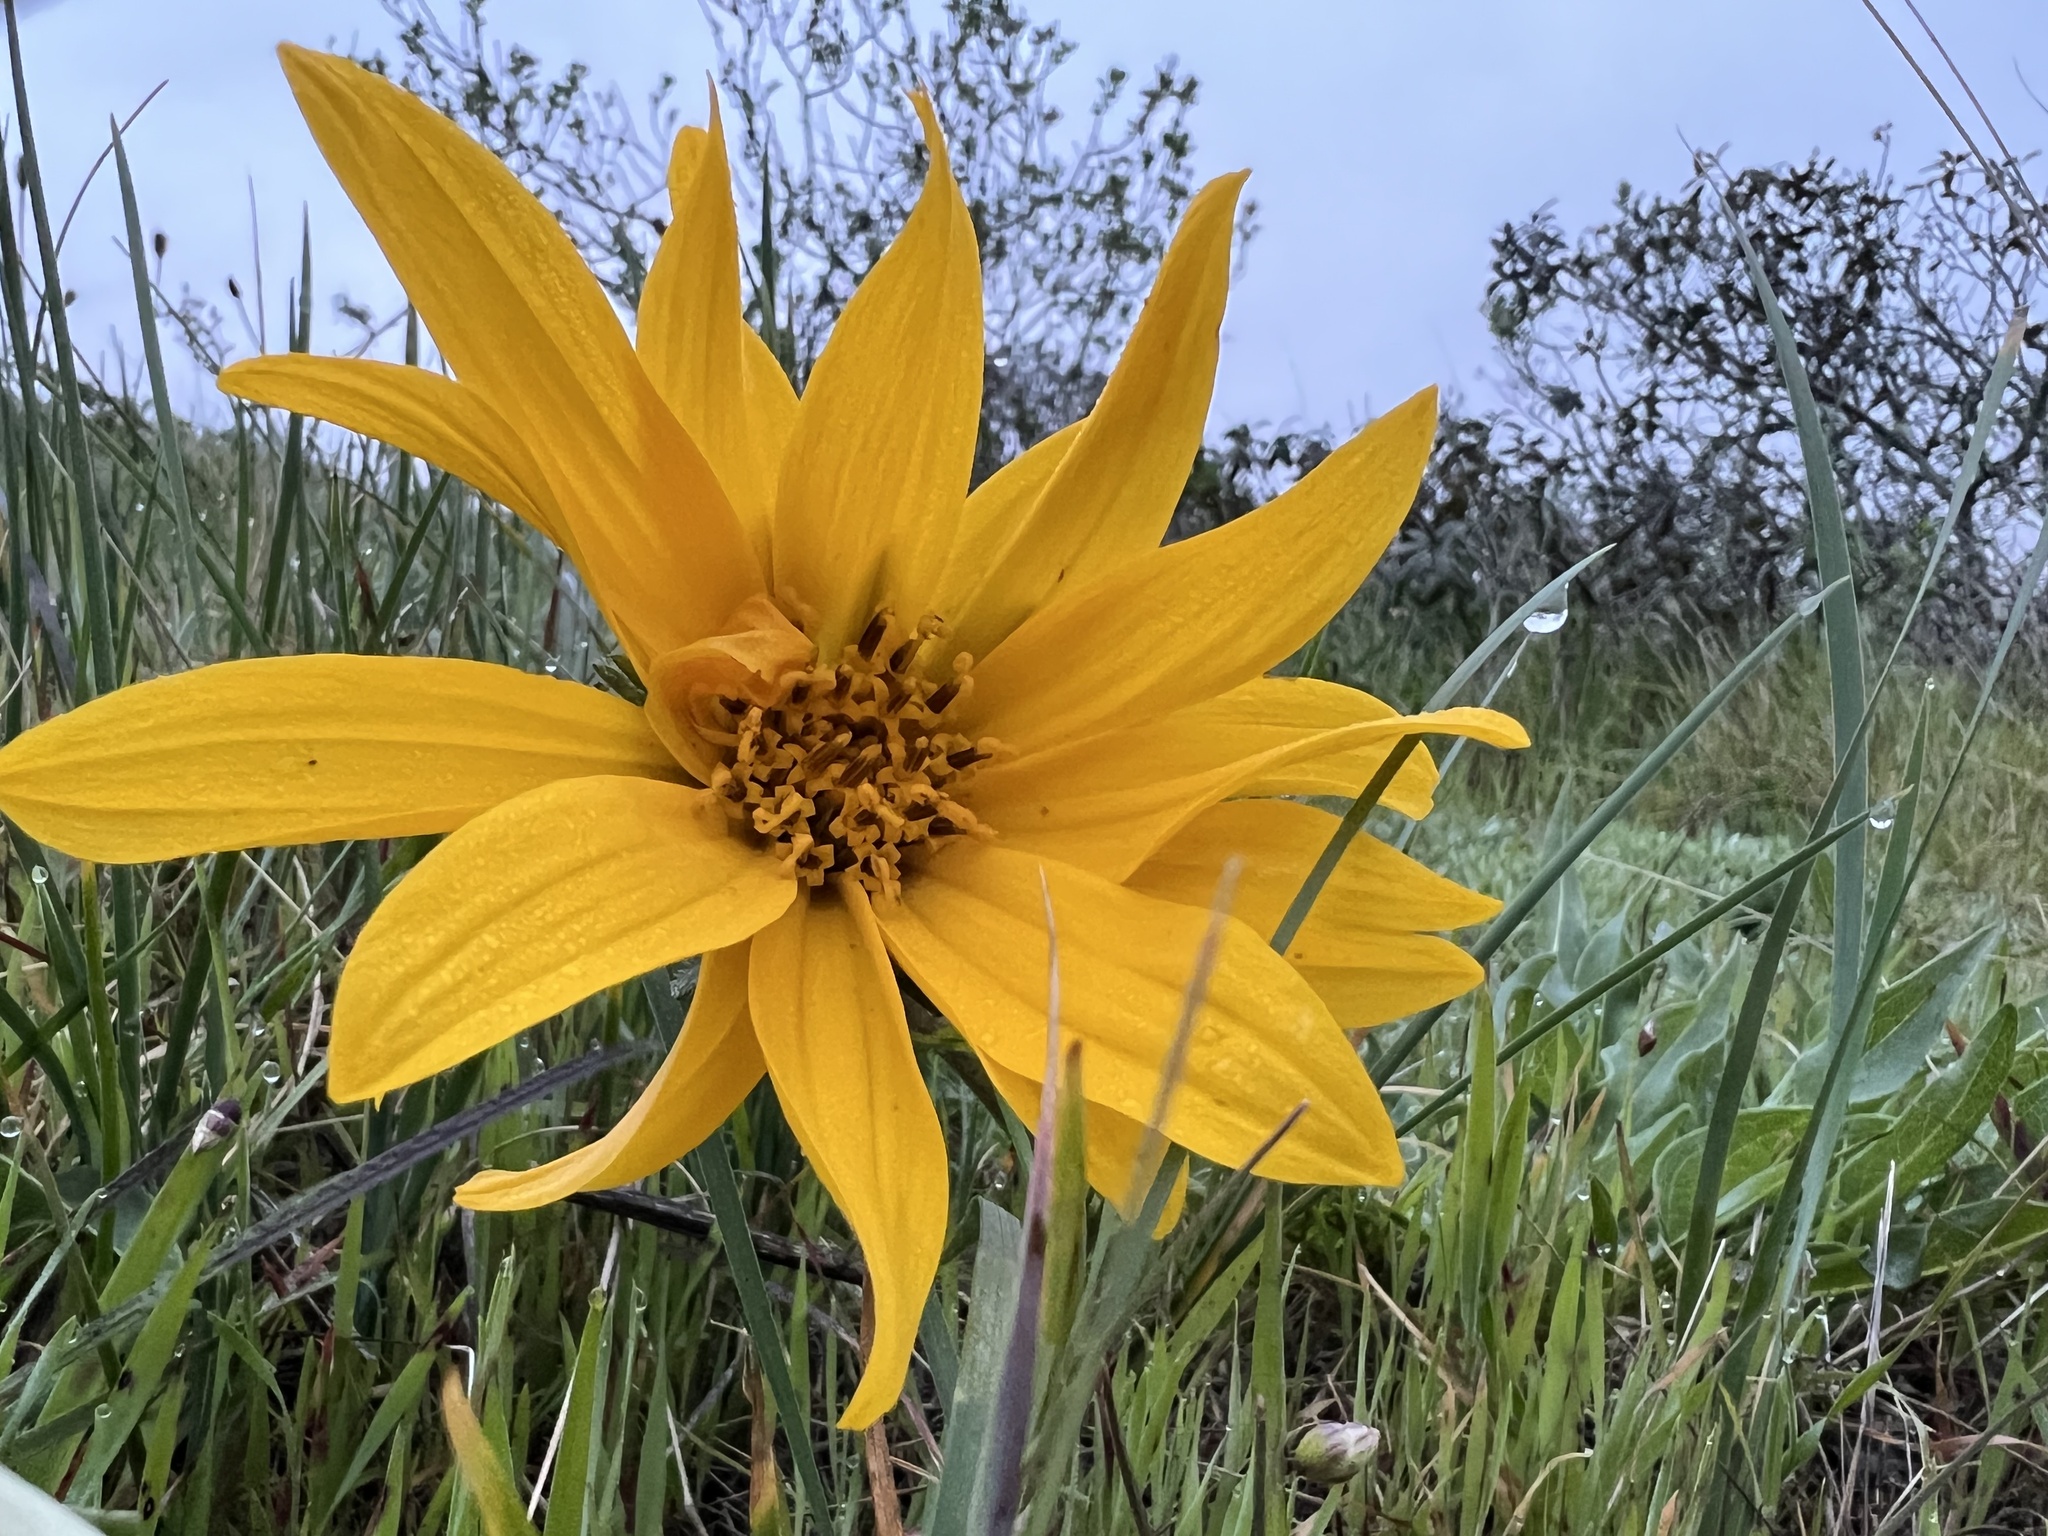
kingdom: Plantae
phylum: Tracheophyta
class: Magnoliopsida
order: Asterales
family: Asteraceae
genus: Wyethia
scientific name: Wyethia angustifolia
